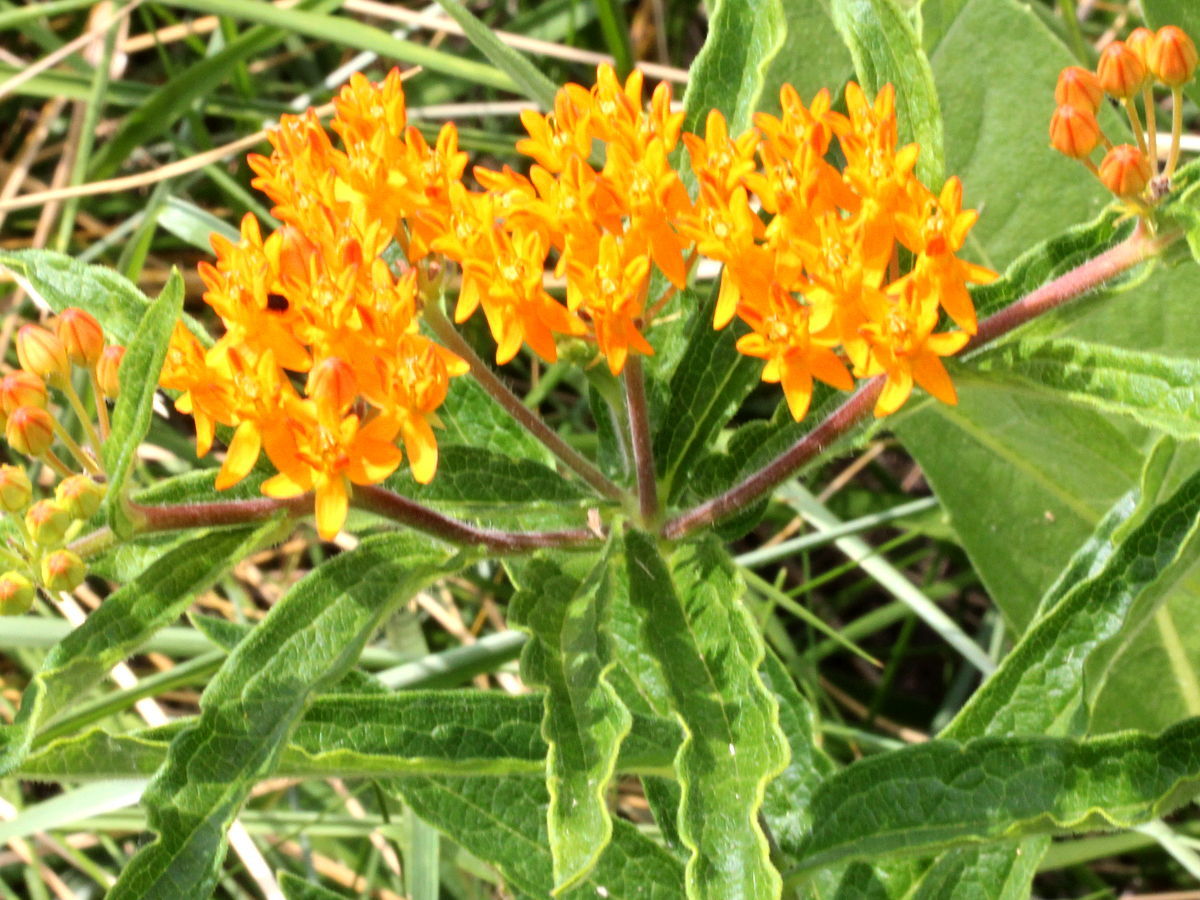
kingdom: Plantae
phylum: Tracheophyta
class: Magnoliopsida
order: Gentianales
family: Apocynaceae
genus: Asclepias
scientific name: Asclepias tuberosa
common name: Butterfly milkweed
